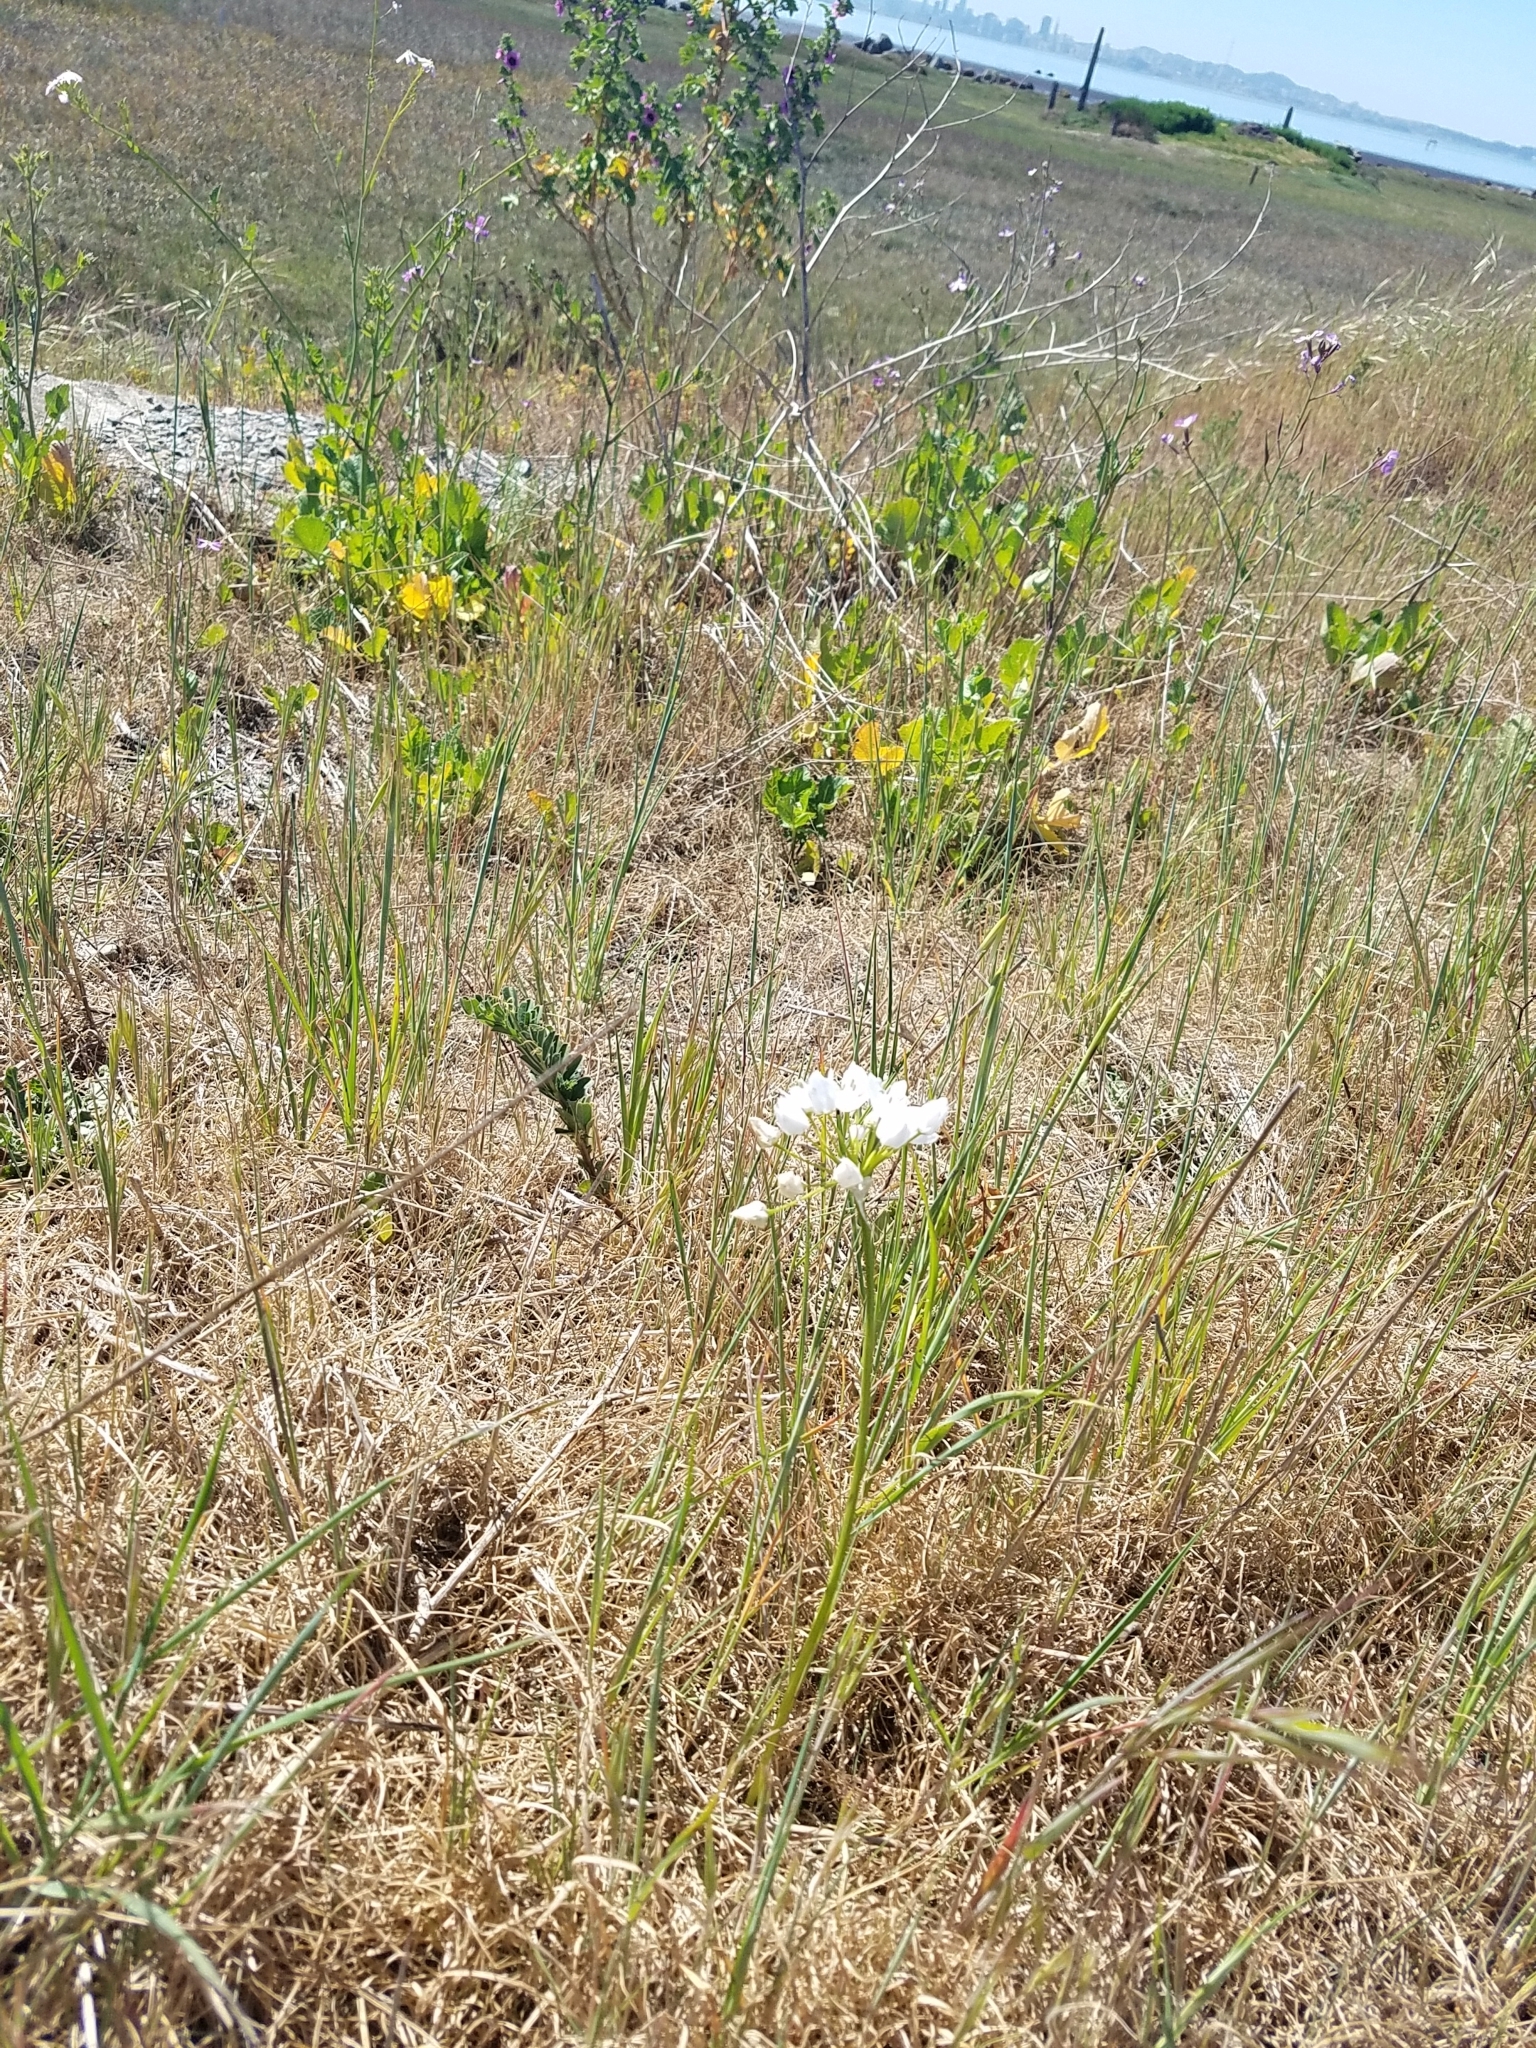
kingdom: Plantae
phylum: Tracheophyta
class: Liliopsida
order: Asparagales
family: Amaryllidaceae
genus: Allium
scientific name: Allium neapolitanum
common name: Neapolitan garlic
